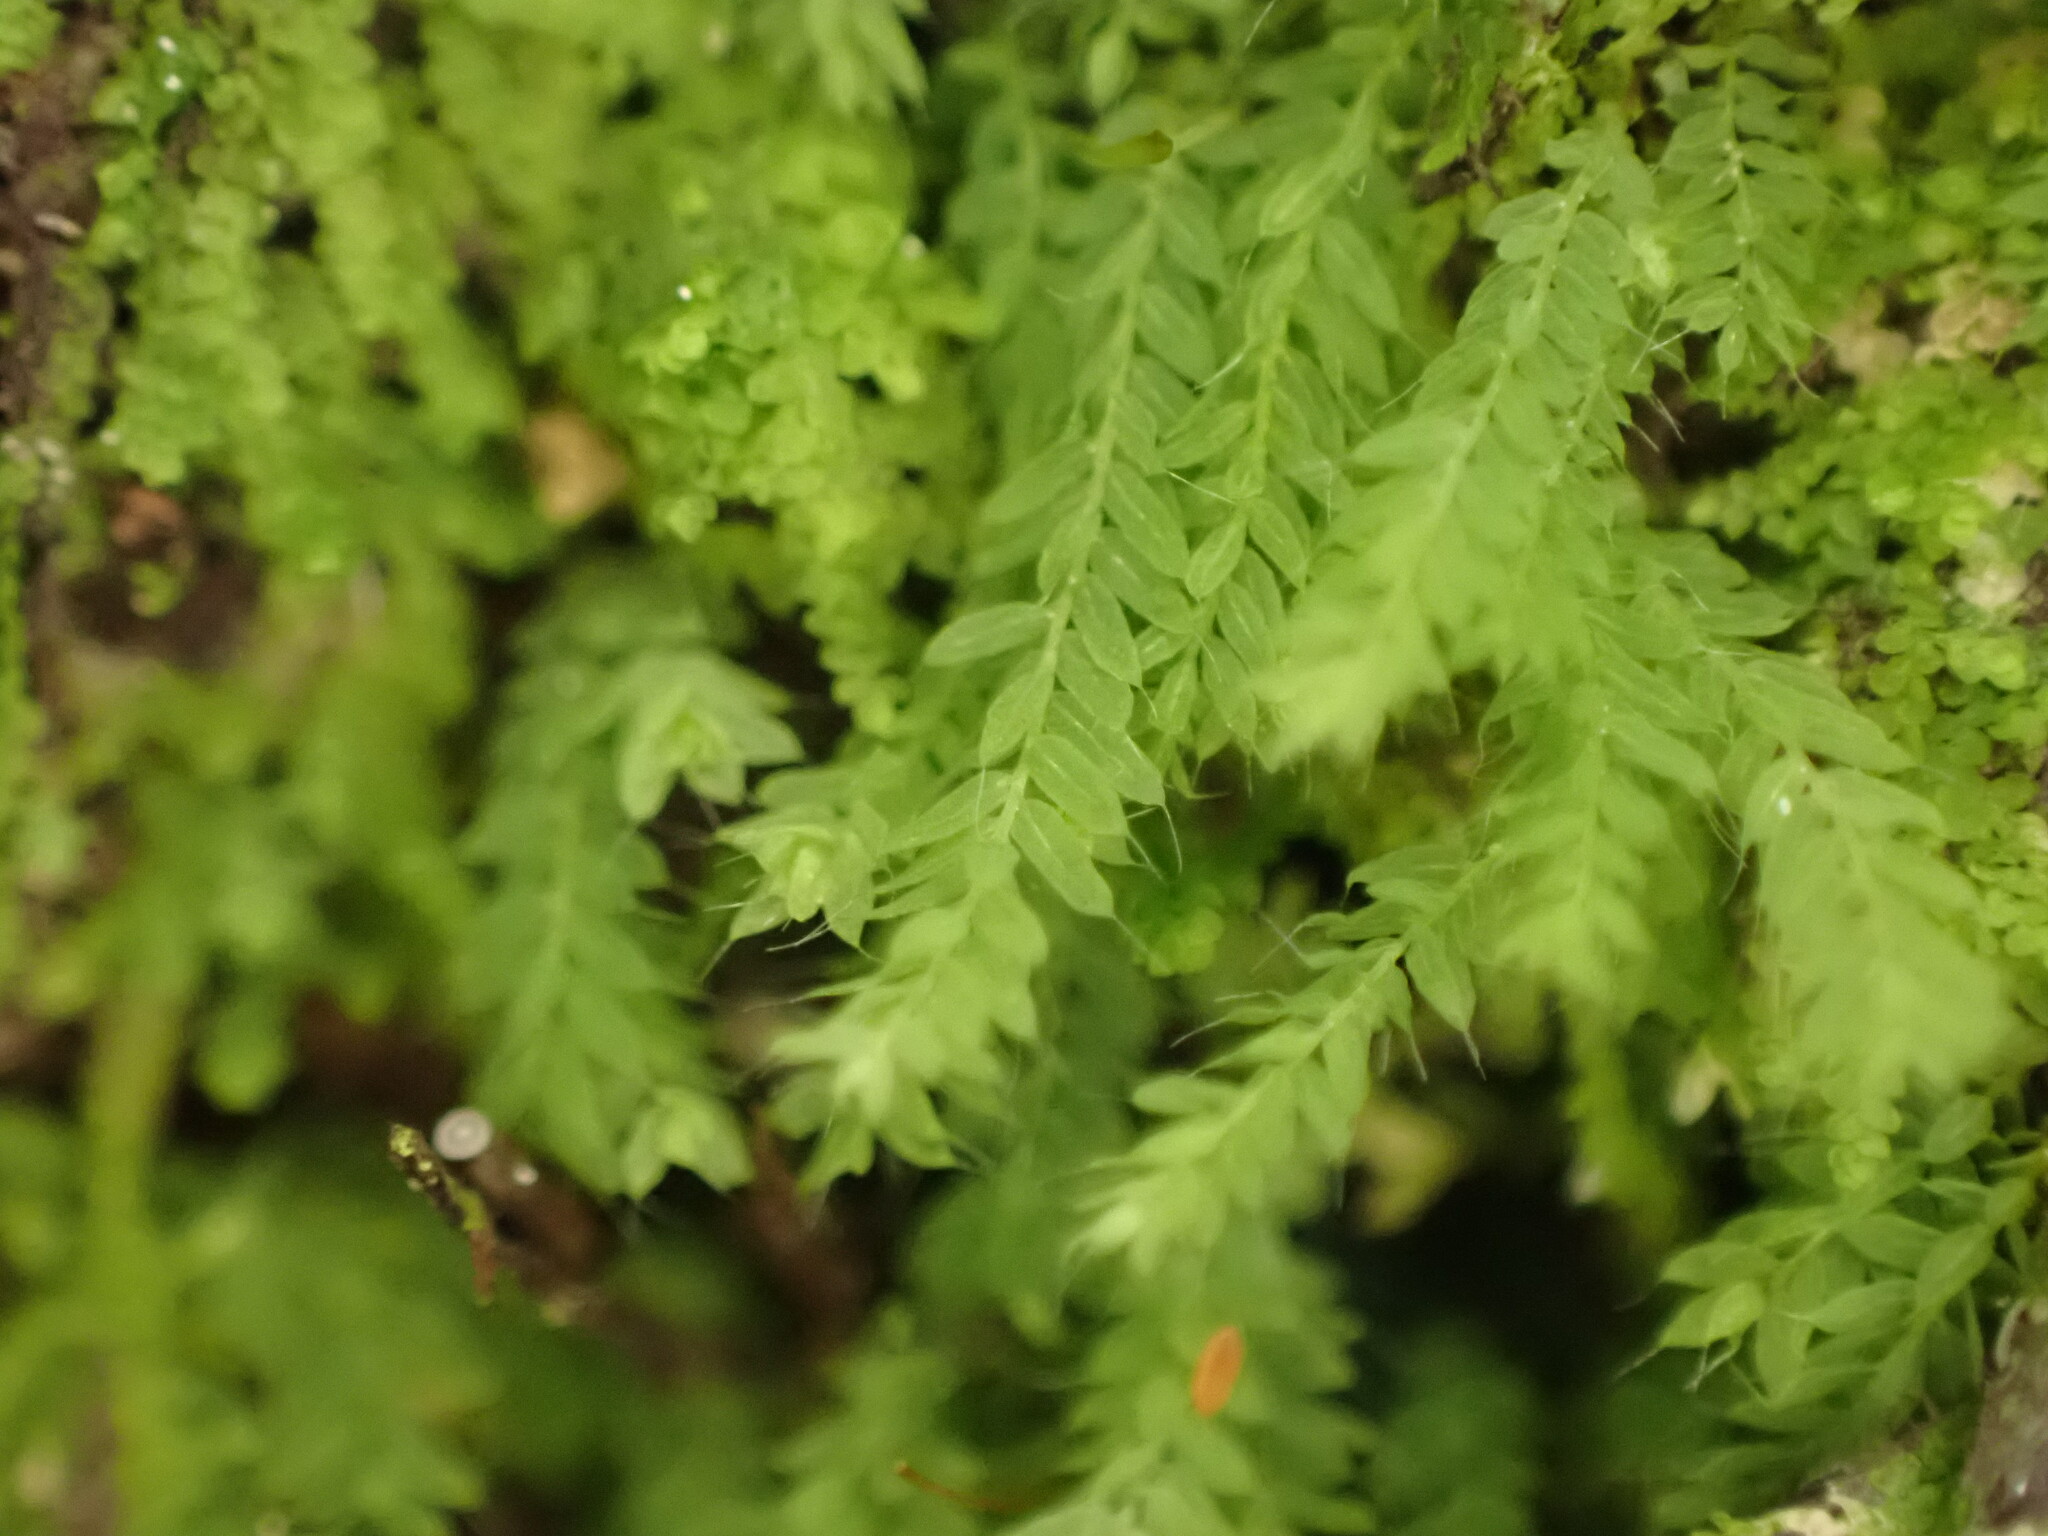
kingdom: Plantae
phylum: Bryophyta
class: Bryopsida
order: Orthodontiales
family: Orthodontiaceae
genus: Hymenodon
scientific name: Hymenodon pilifer
